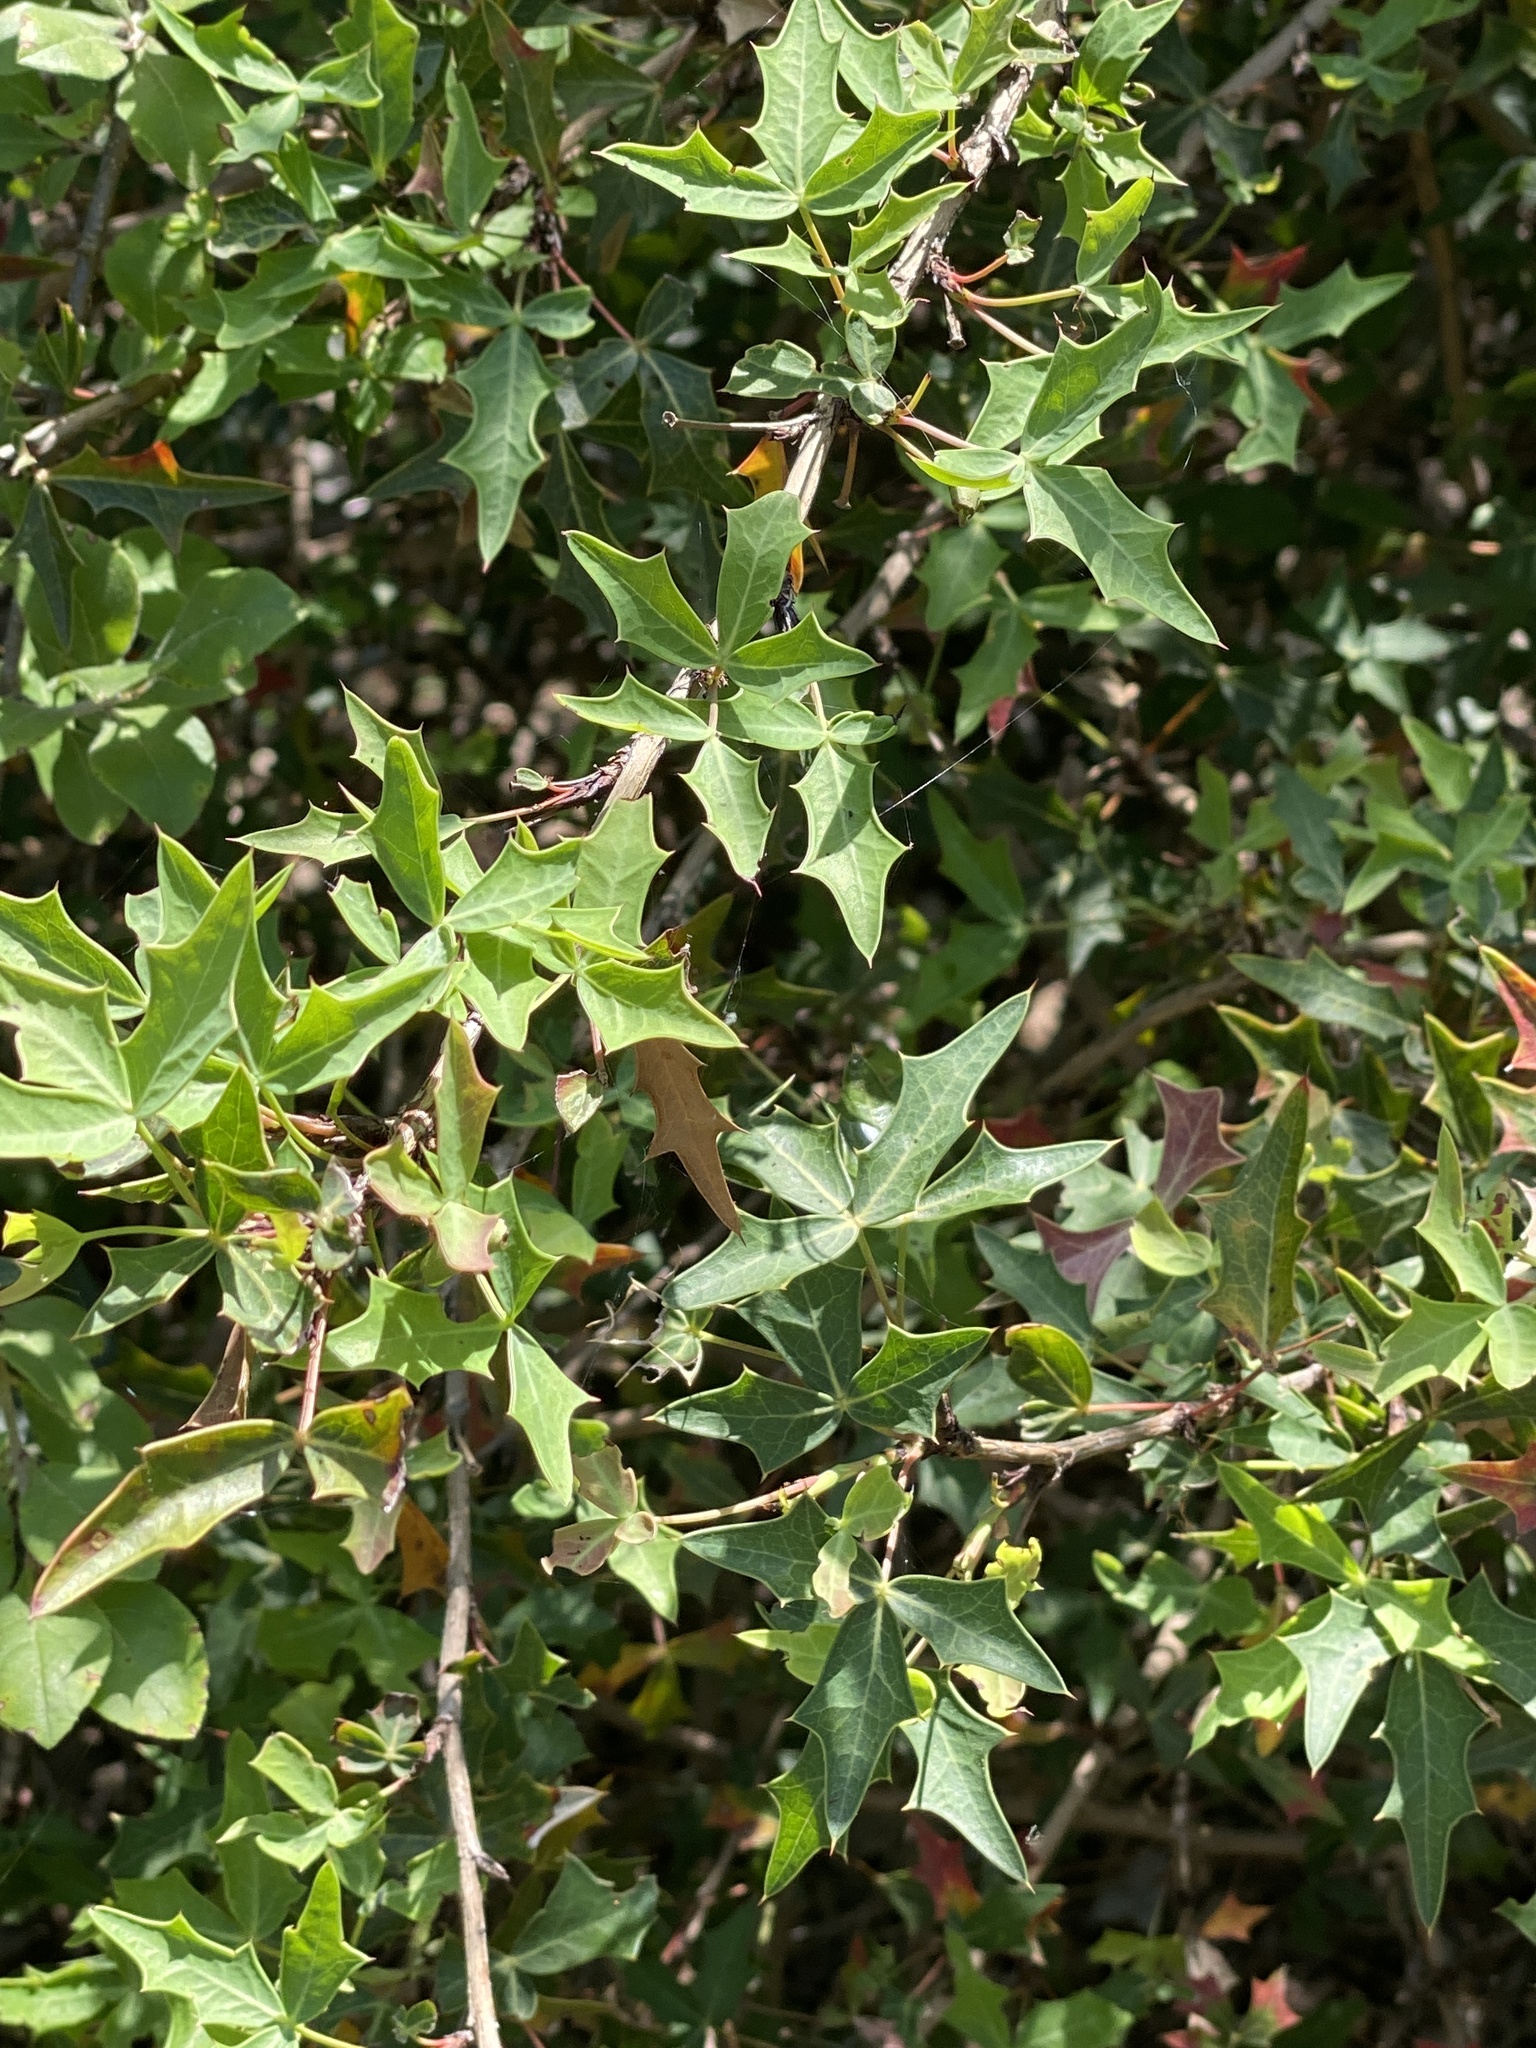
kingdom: Plantae
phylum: Tracheophyta
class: Magnoliopsida
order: Ranunculales
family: Berberidaceae
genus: Alloberberis
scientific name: Alloberberis trifoliolata
